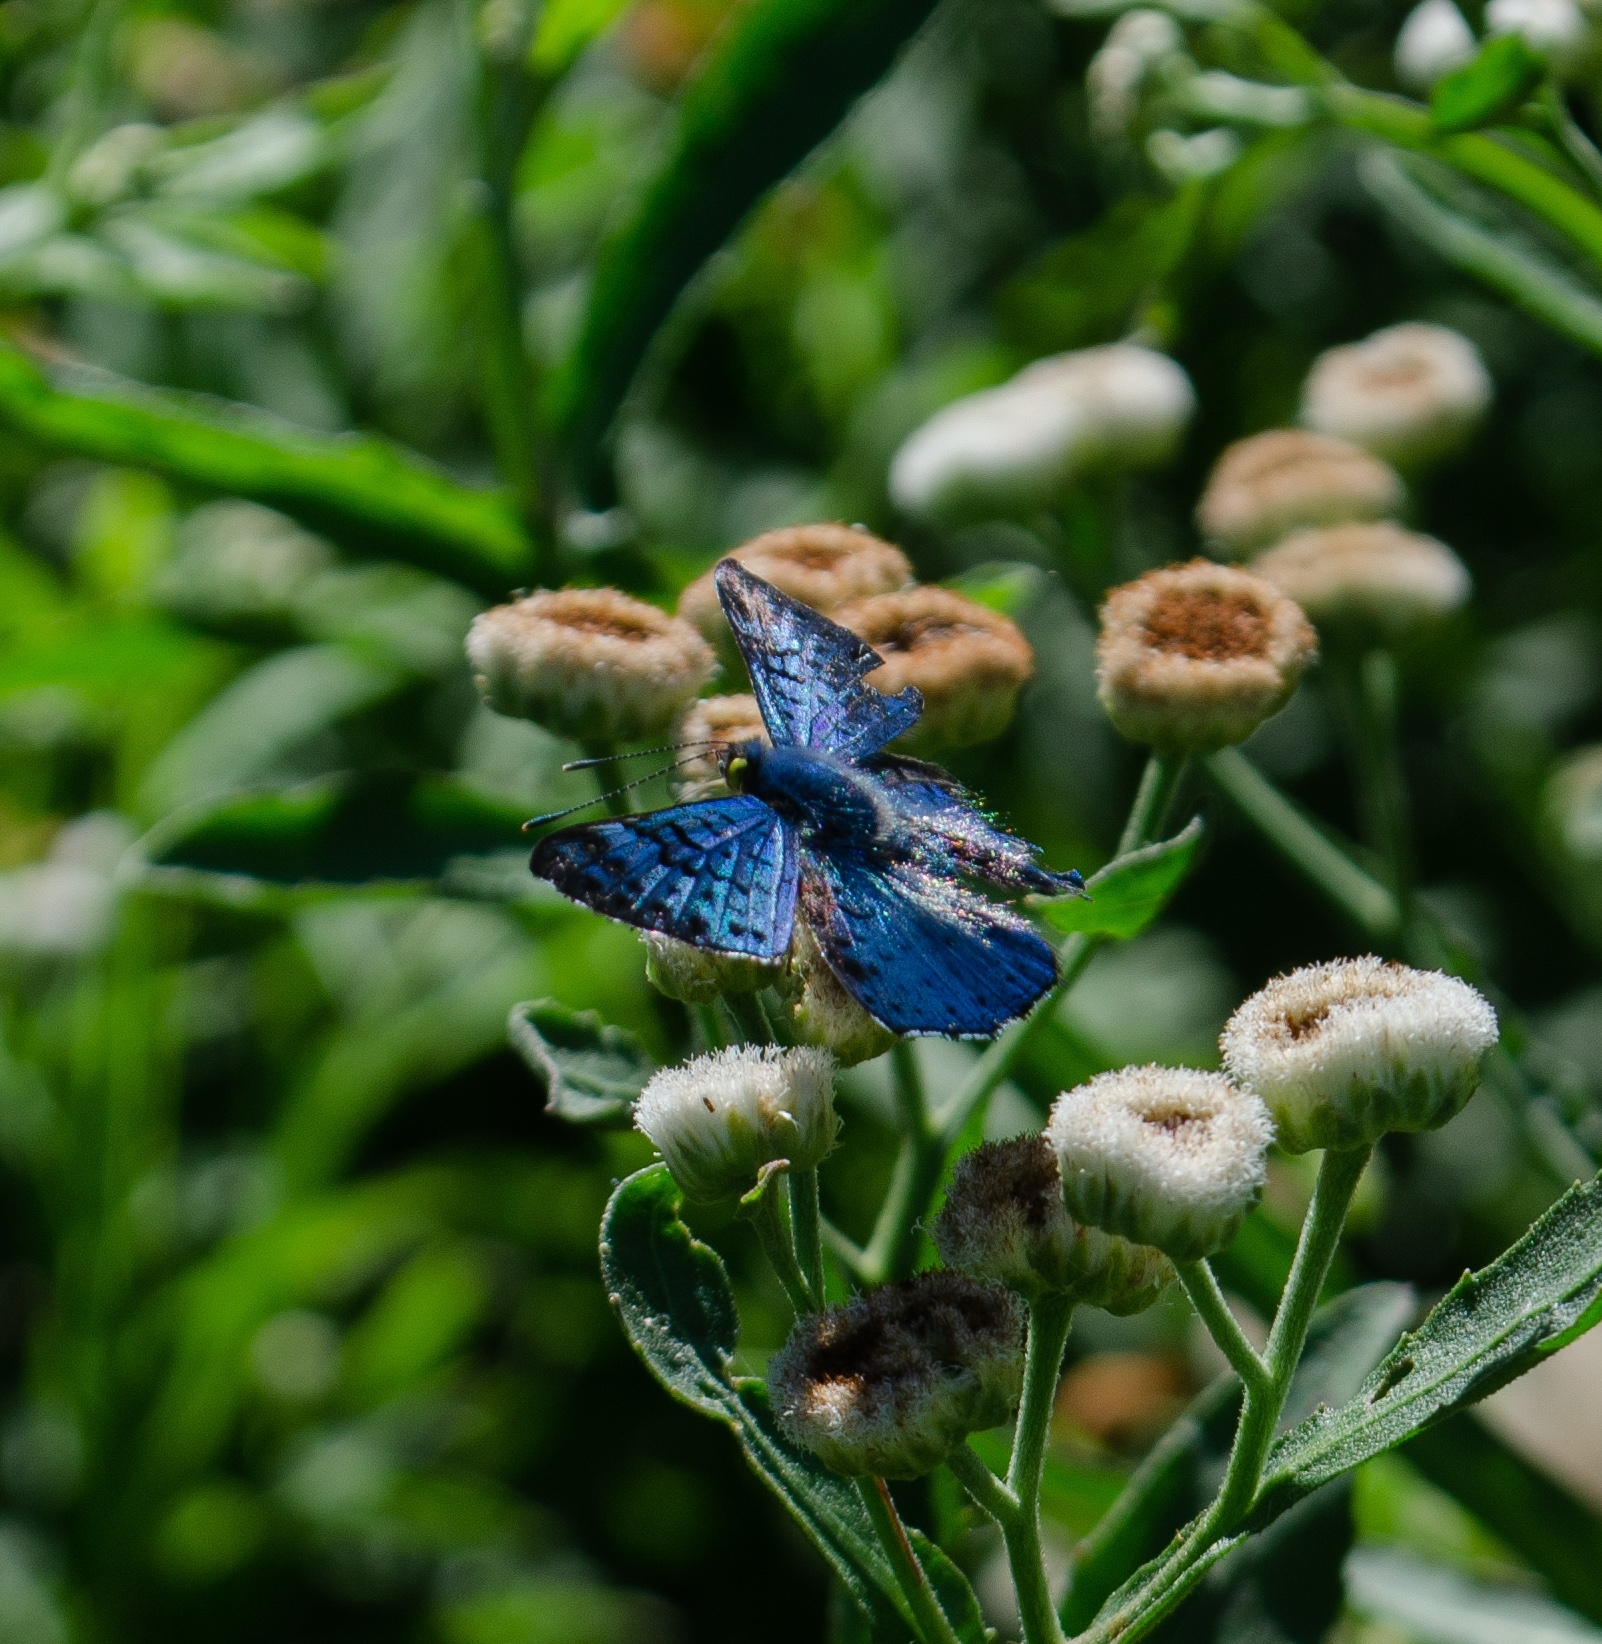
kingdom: Animalia
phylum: Arthropoda
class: Insecta
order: Lepidoptera
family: Riodinidae
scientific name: Riodinidae
